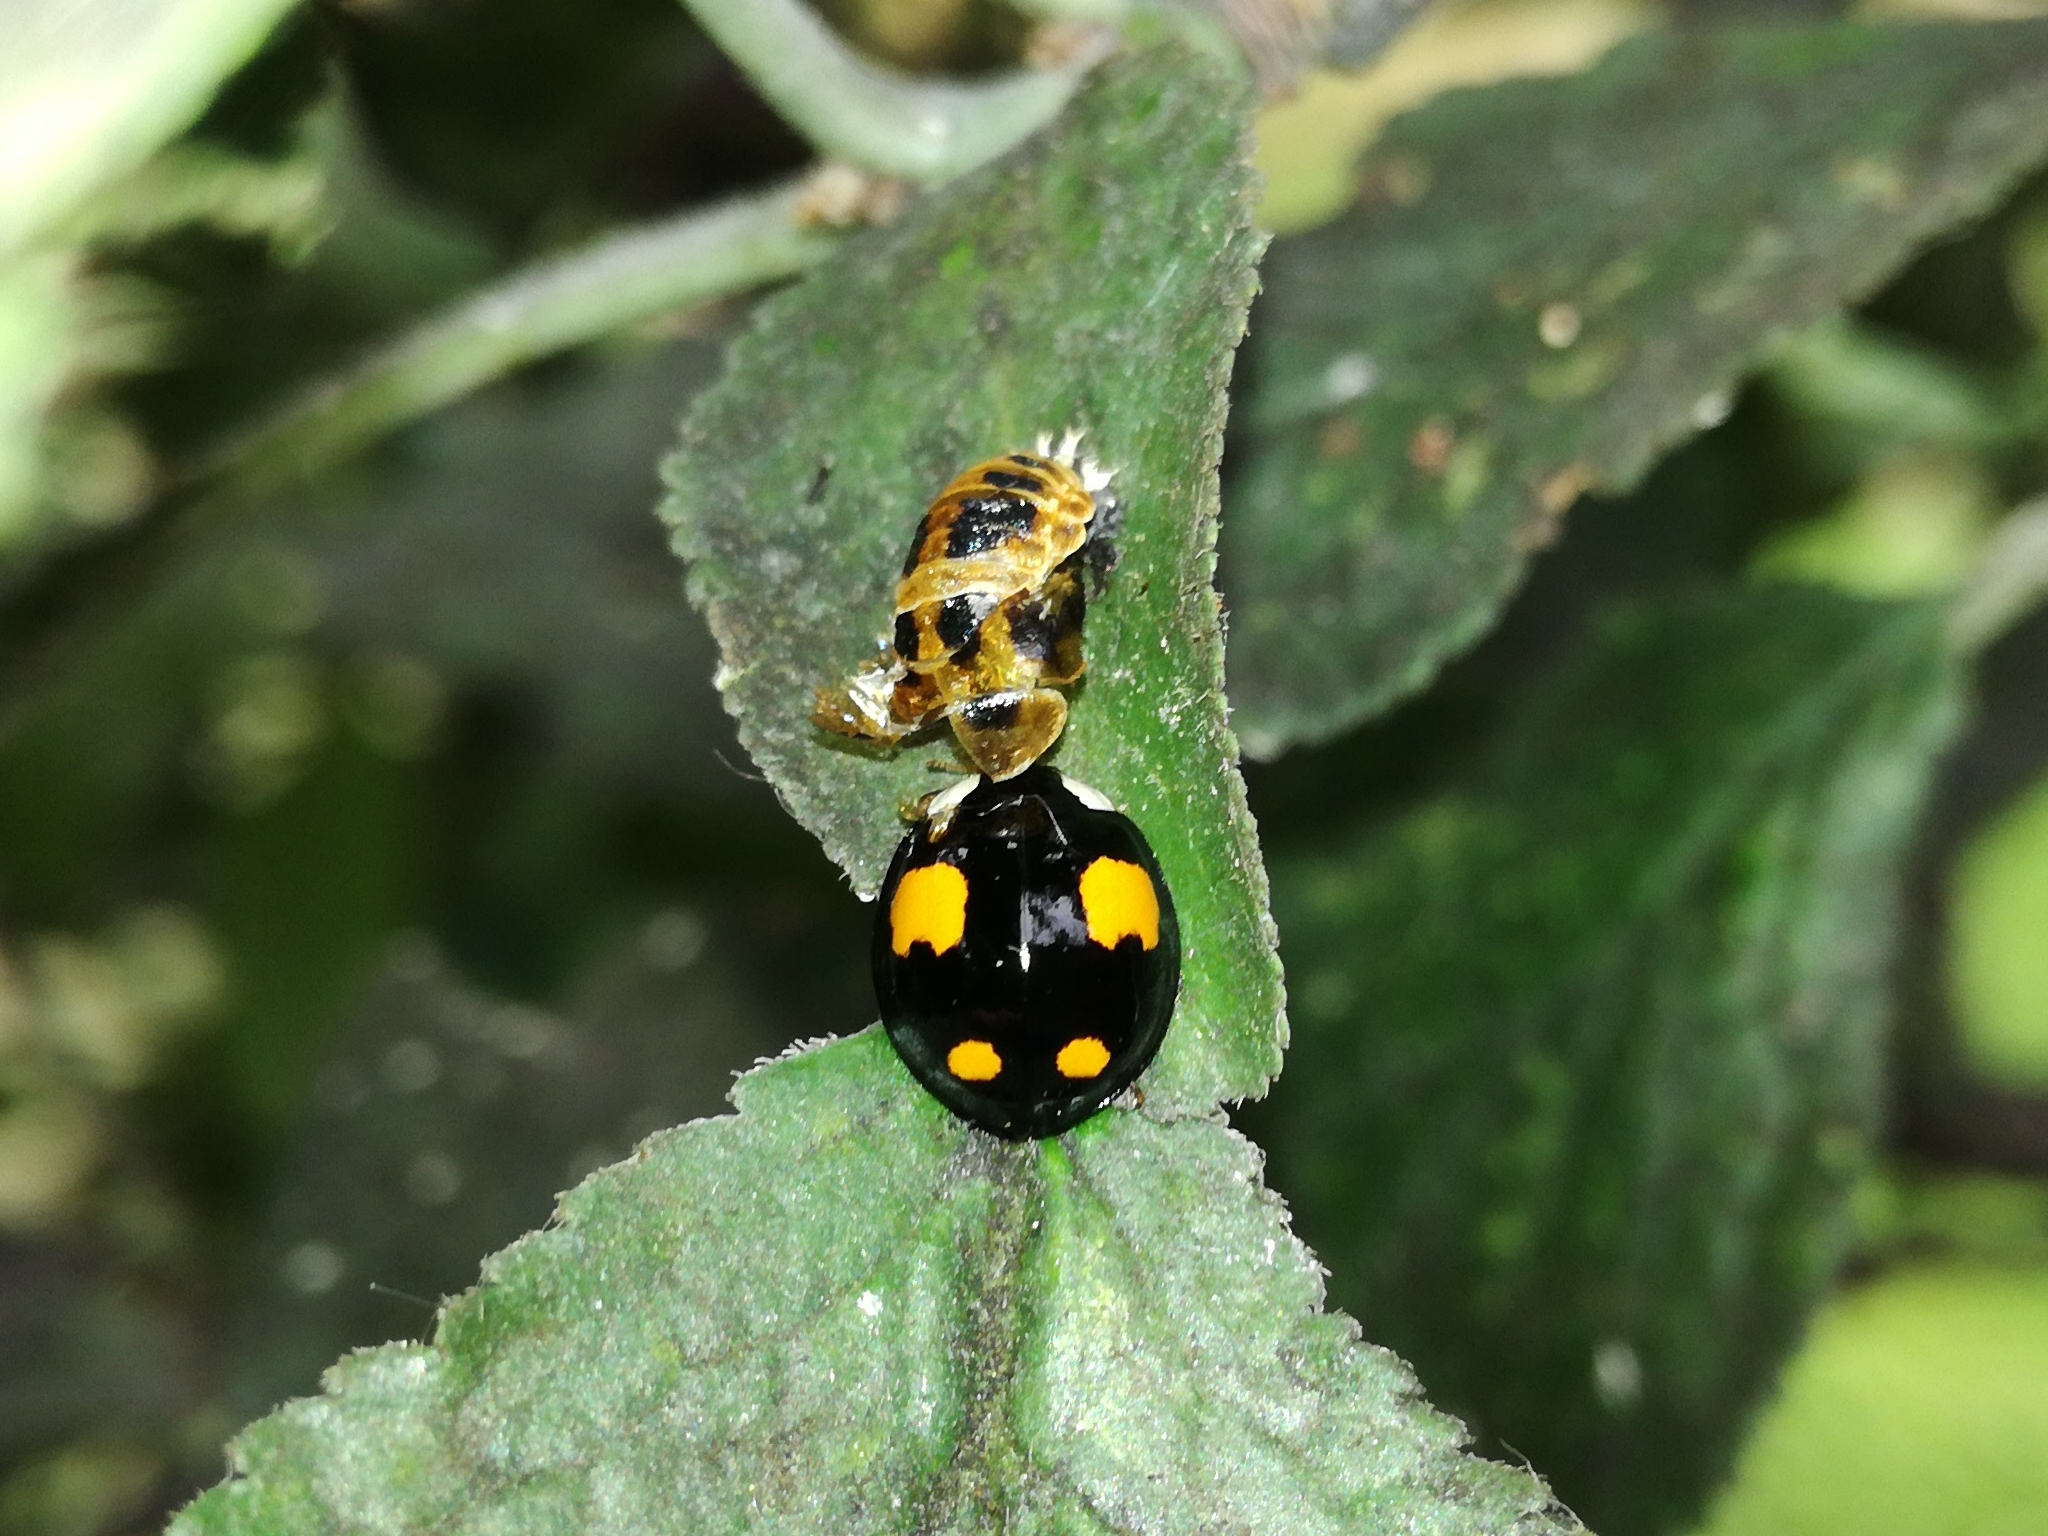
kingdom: Animalia
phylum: Arthropoda
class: Insecta
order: Coleoptera
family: Coccinellidae
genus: Harmonia
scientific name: Harmonia axyridis
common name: Harlequin ladybird
